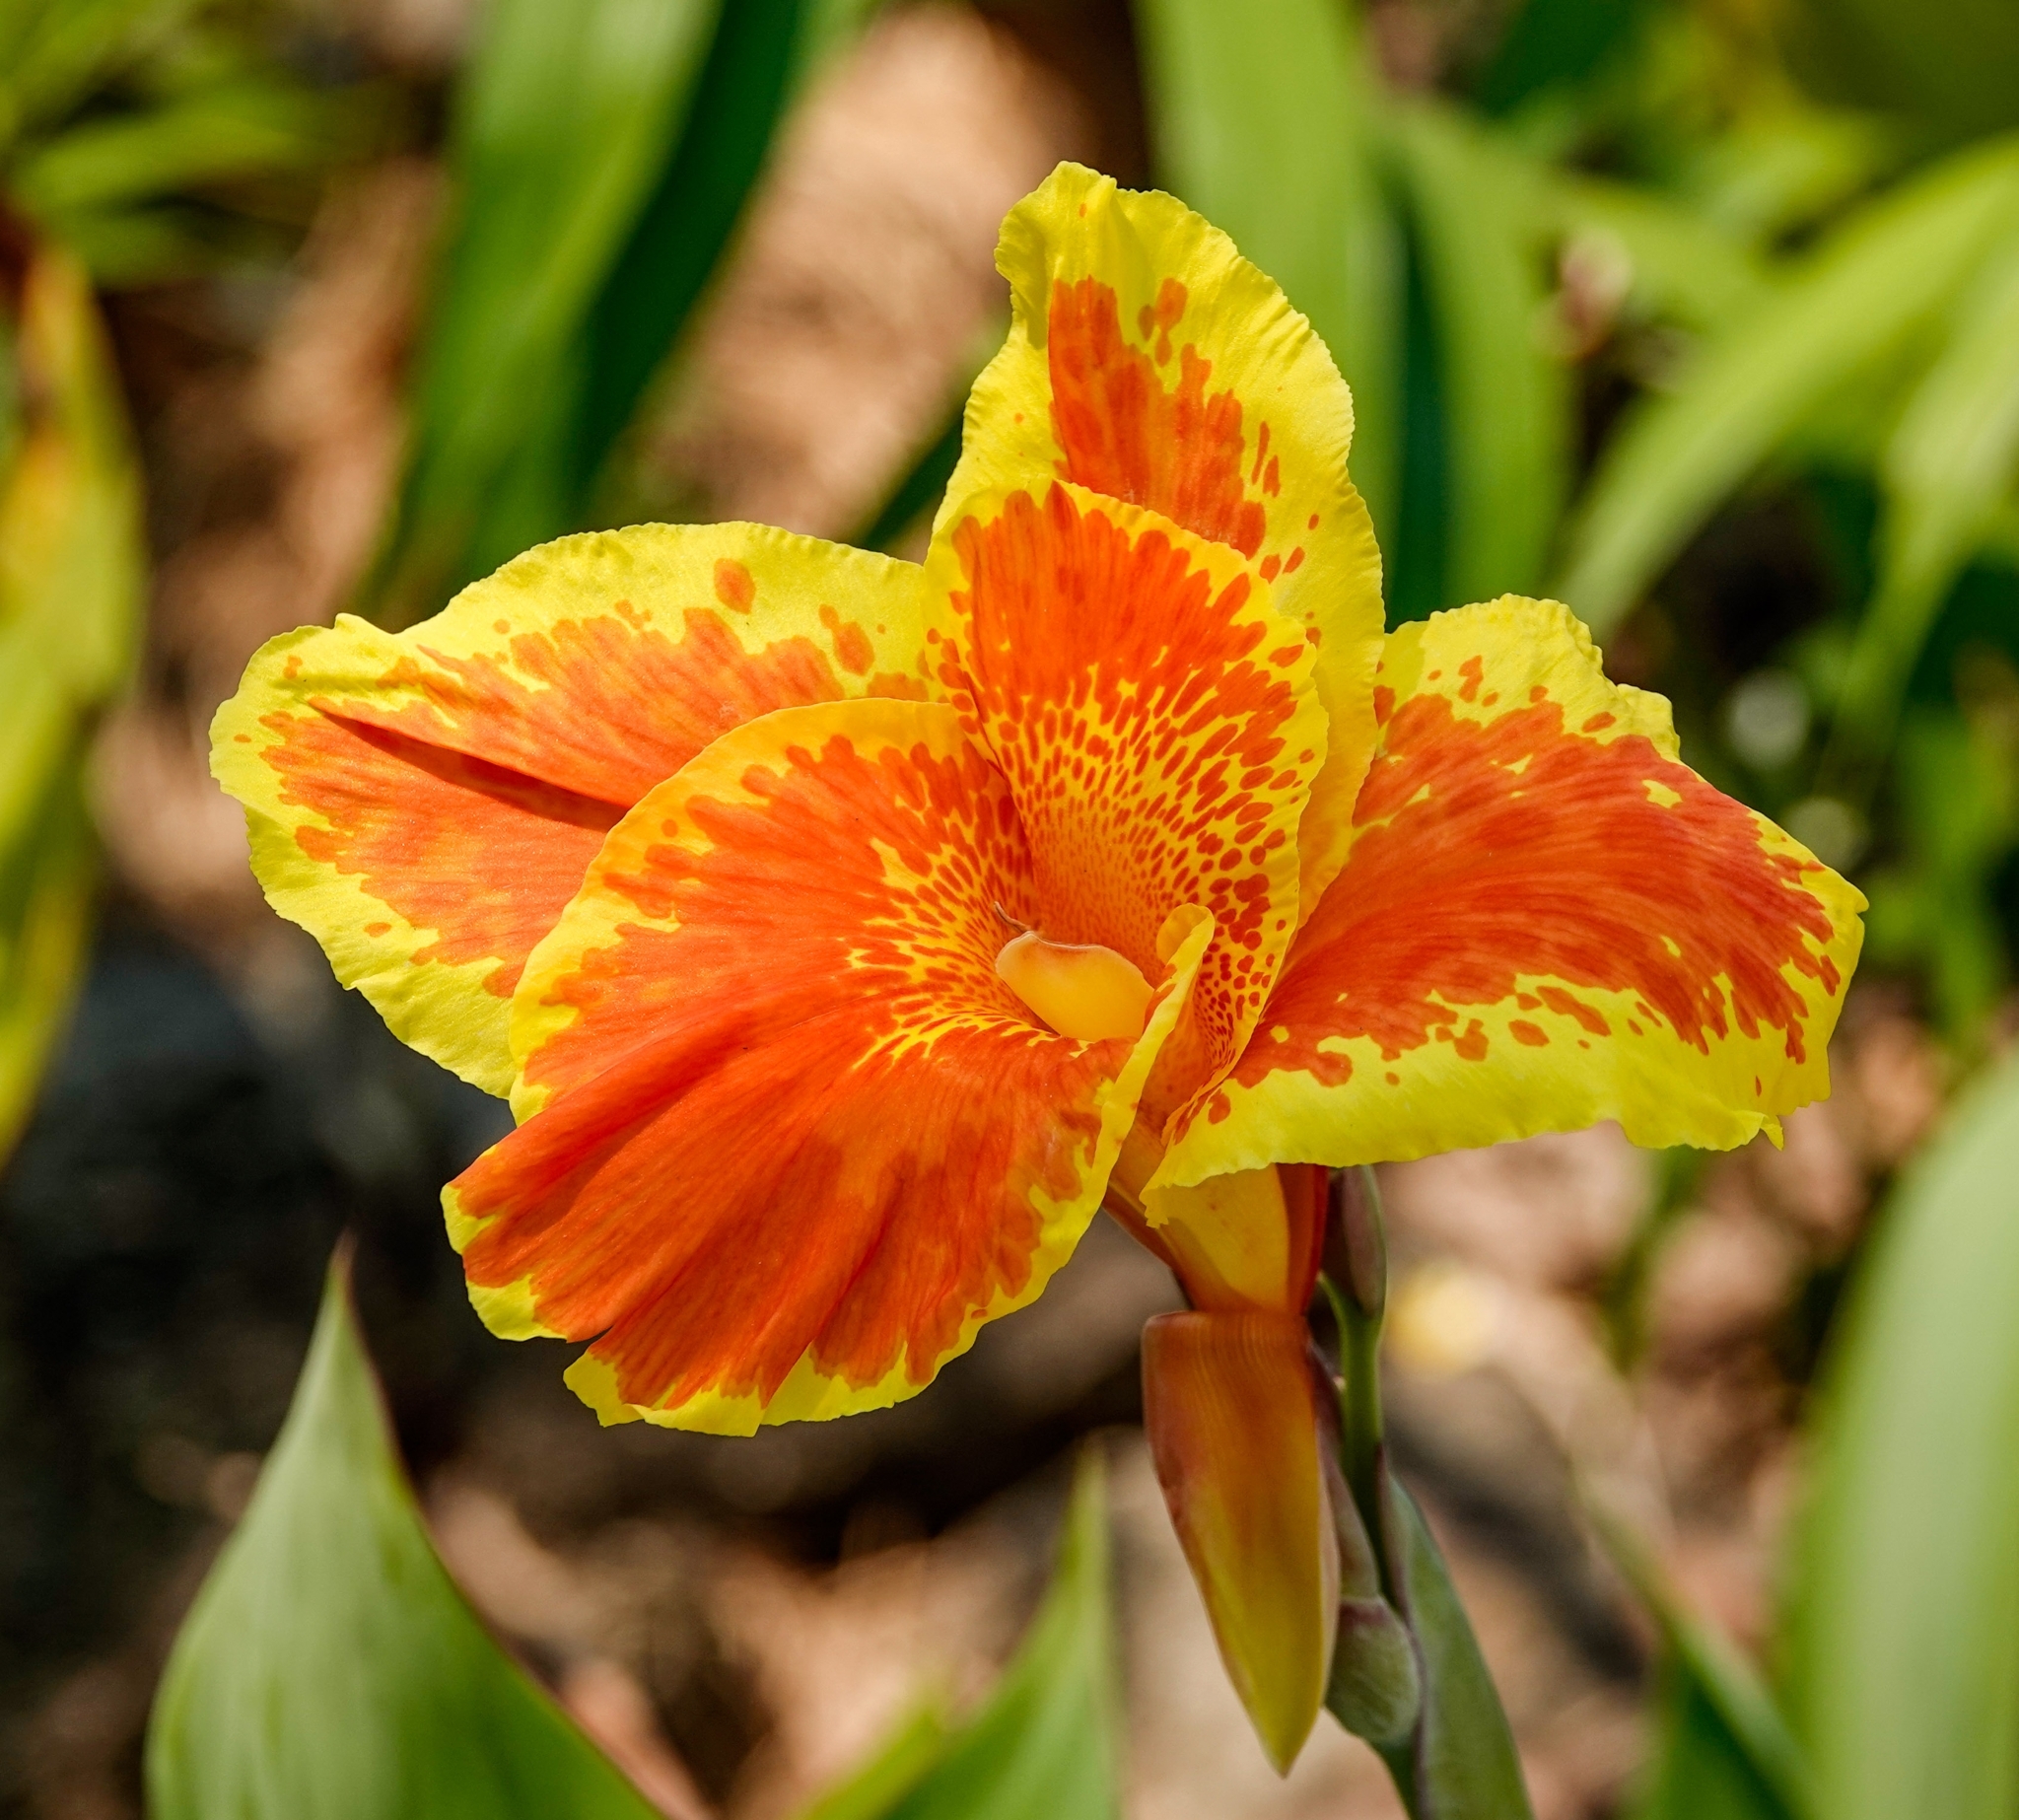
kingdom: Plantae
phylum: Tracheophyta
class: Liliopsida
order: Zingiberales
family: Cannaceae
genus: Canna
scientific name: Canna hybrida
